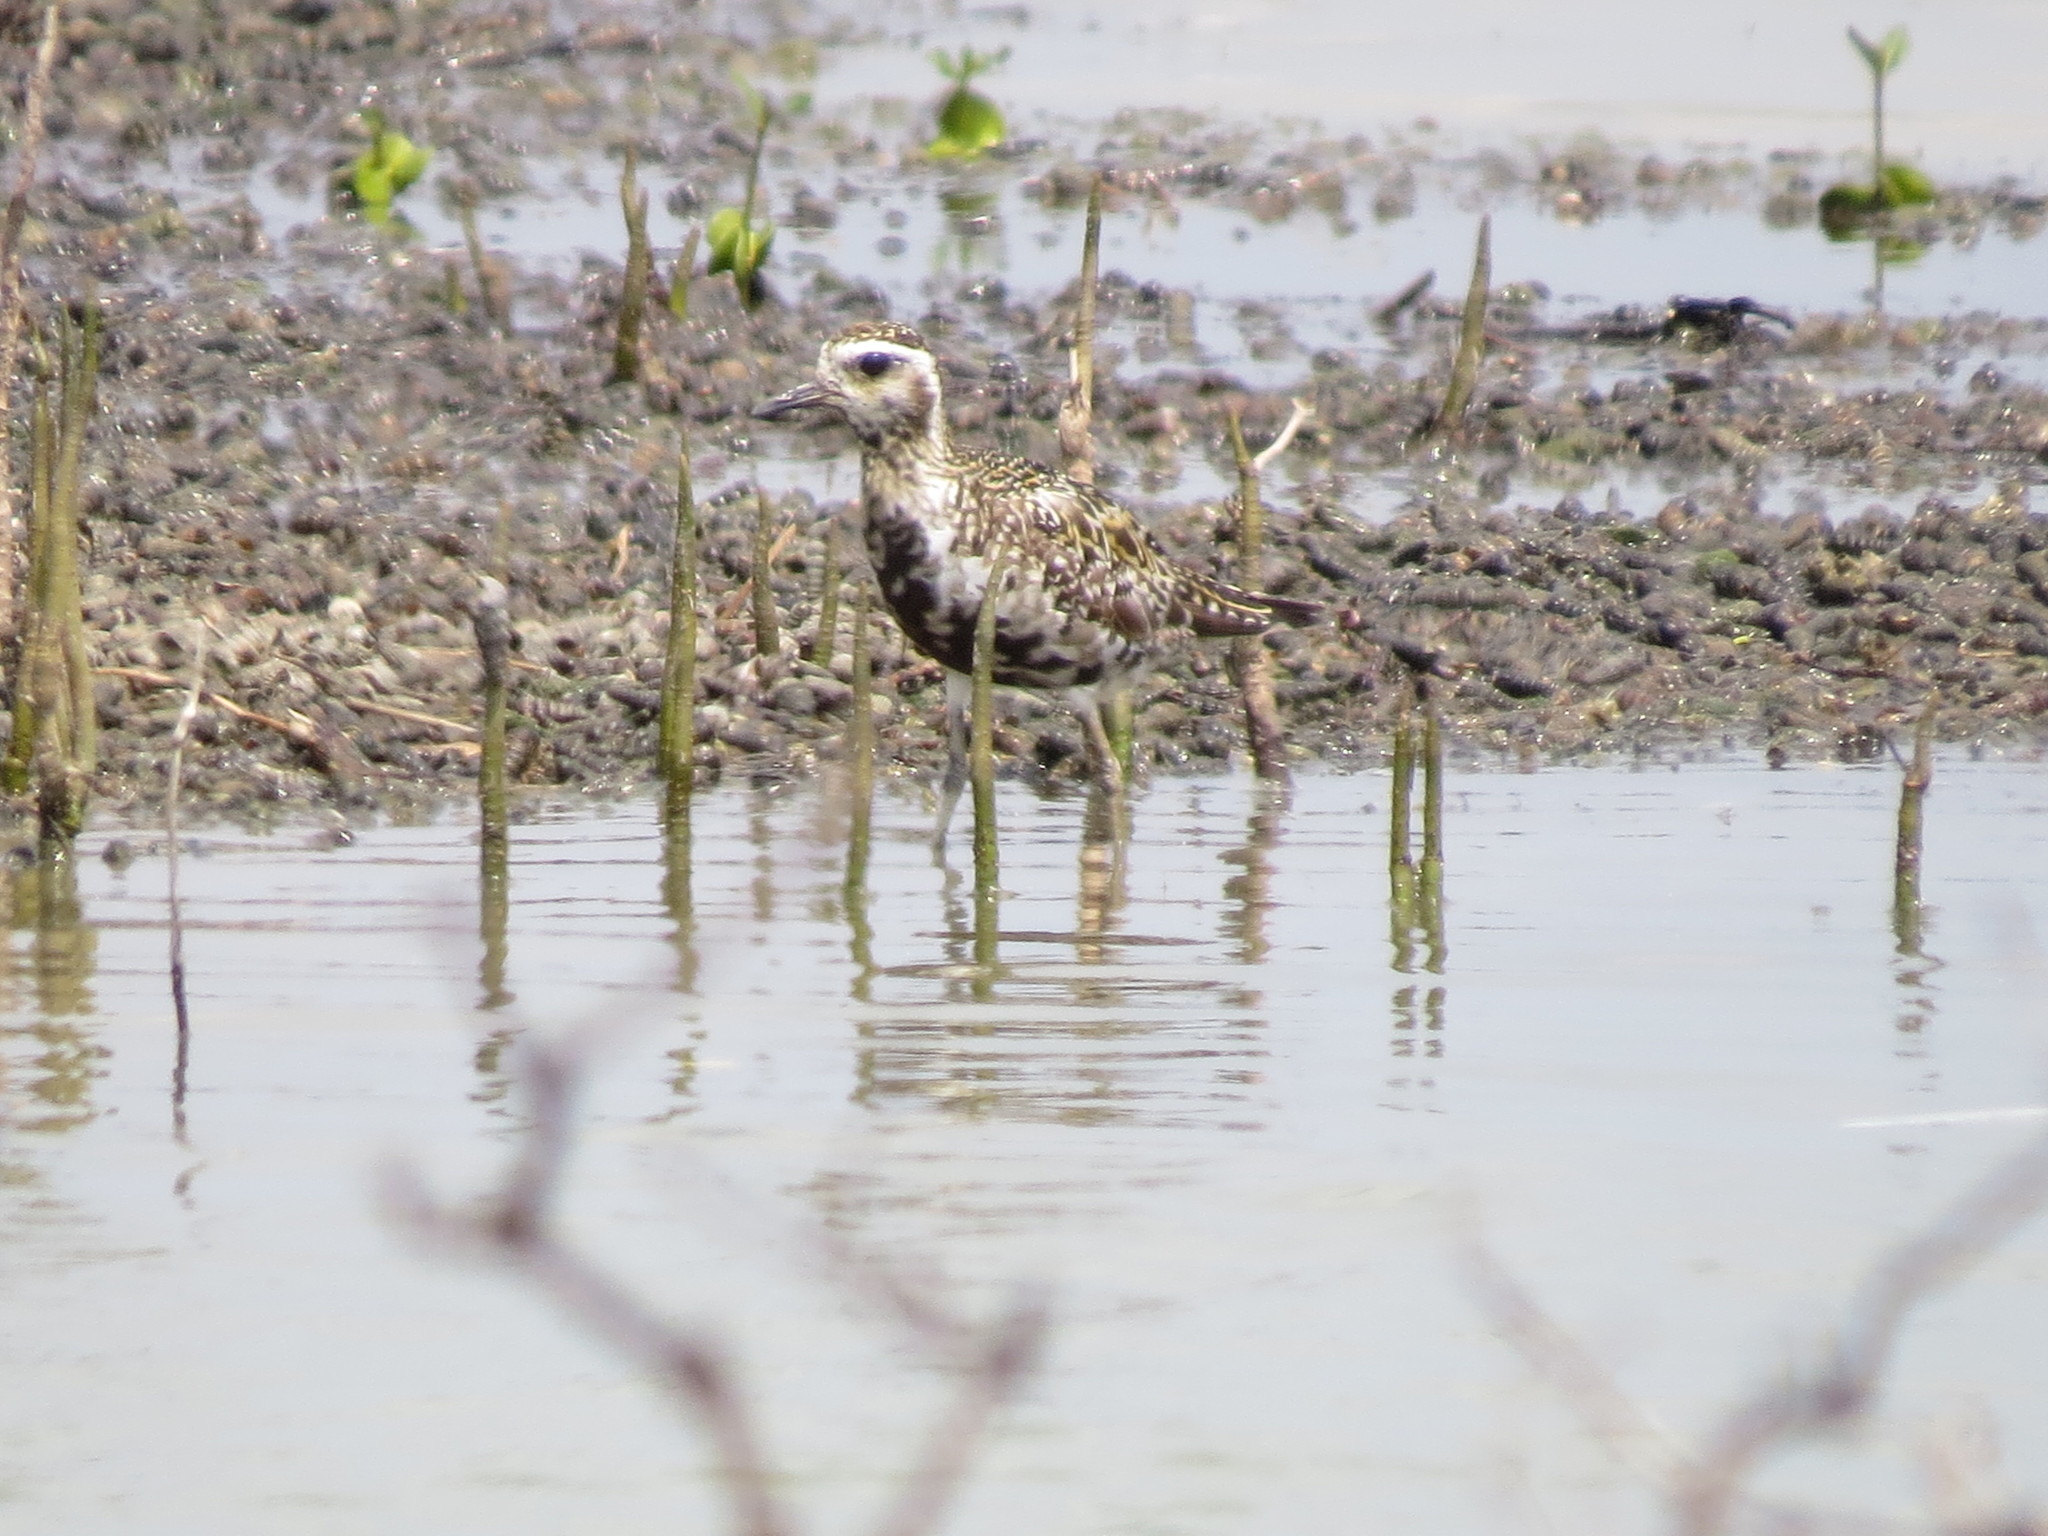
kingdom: Animalia
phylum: Chordata
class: Aves
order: Charadriiformes
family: Charadriidae
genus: Pluvialis
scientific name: Pluvialis fulva
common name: Pacific golden plover
